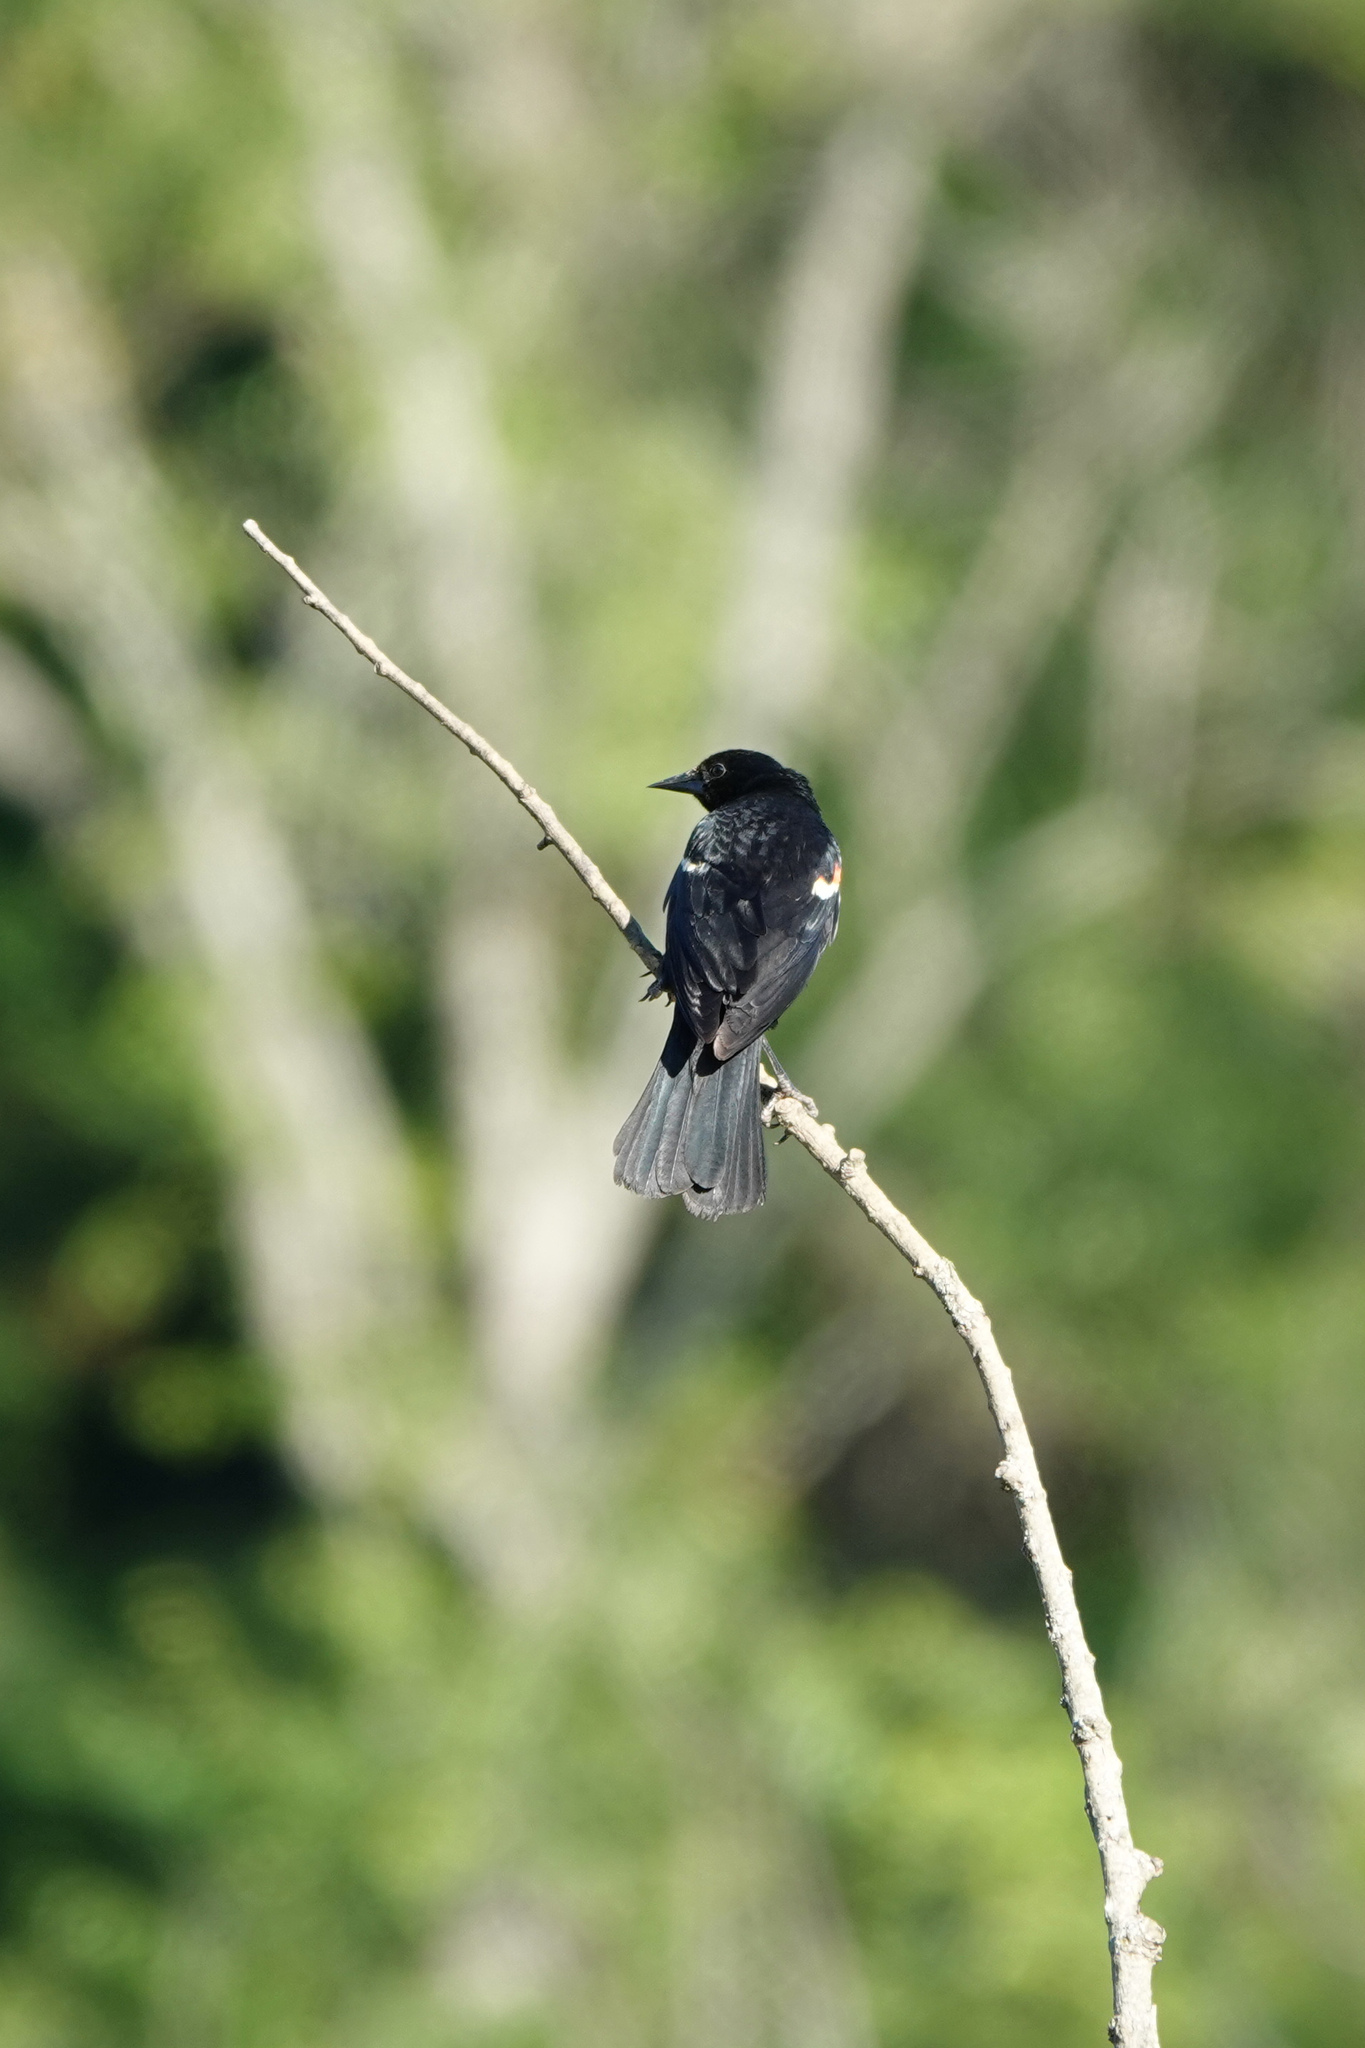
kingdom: Animalia
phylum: Chordata
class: Aves
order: Passeriformes
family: Icteridae
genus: Agelaius
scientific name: Agelaius phoeniceus
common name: Red-winged blackbird
